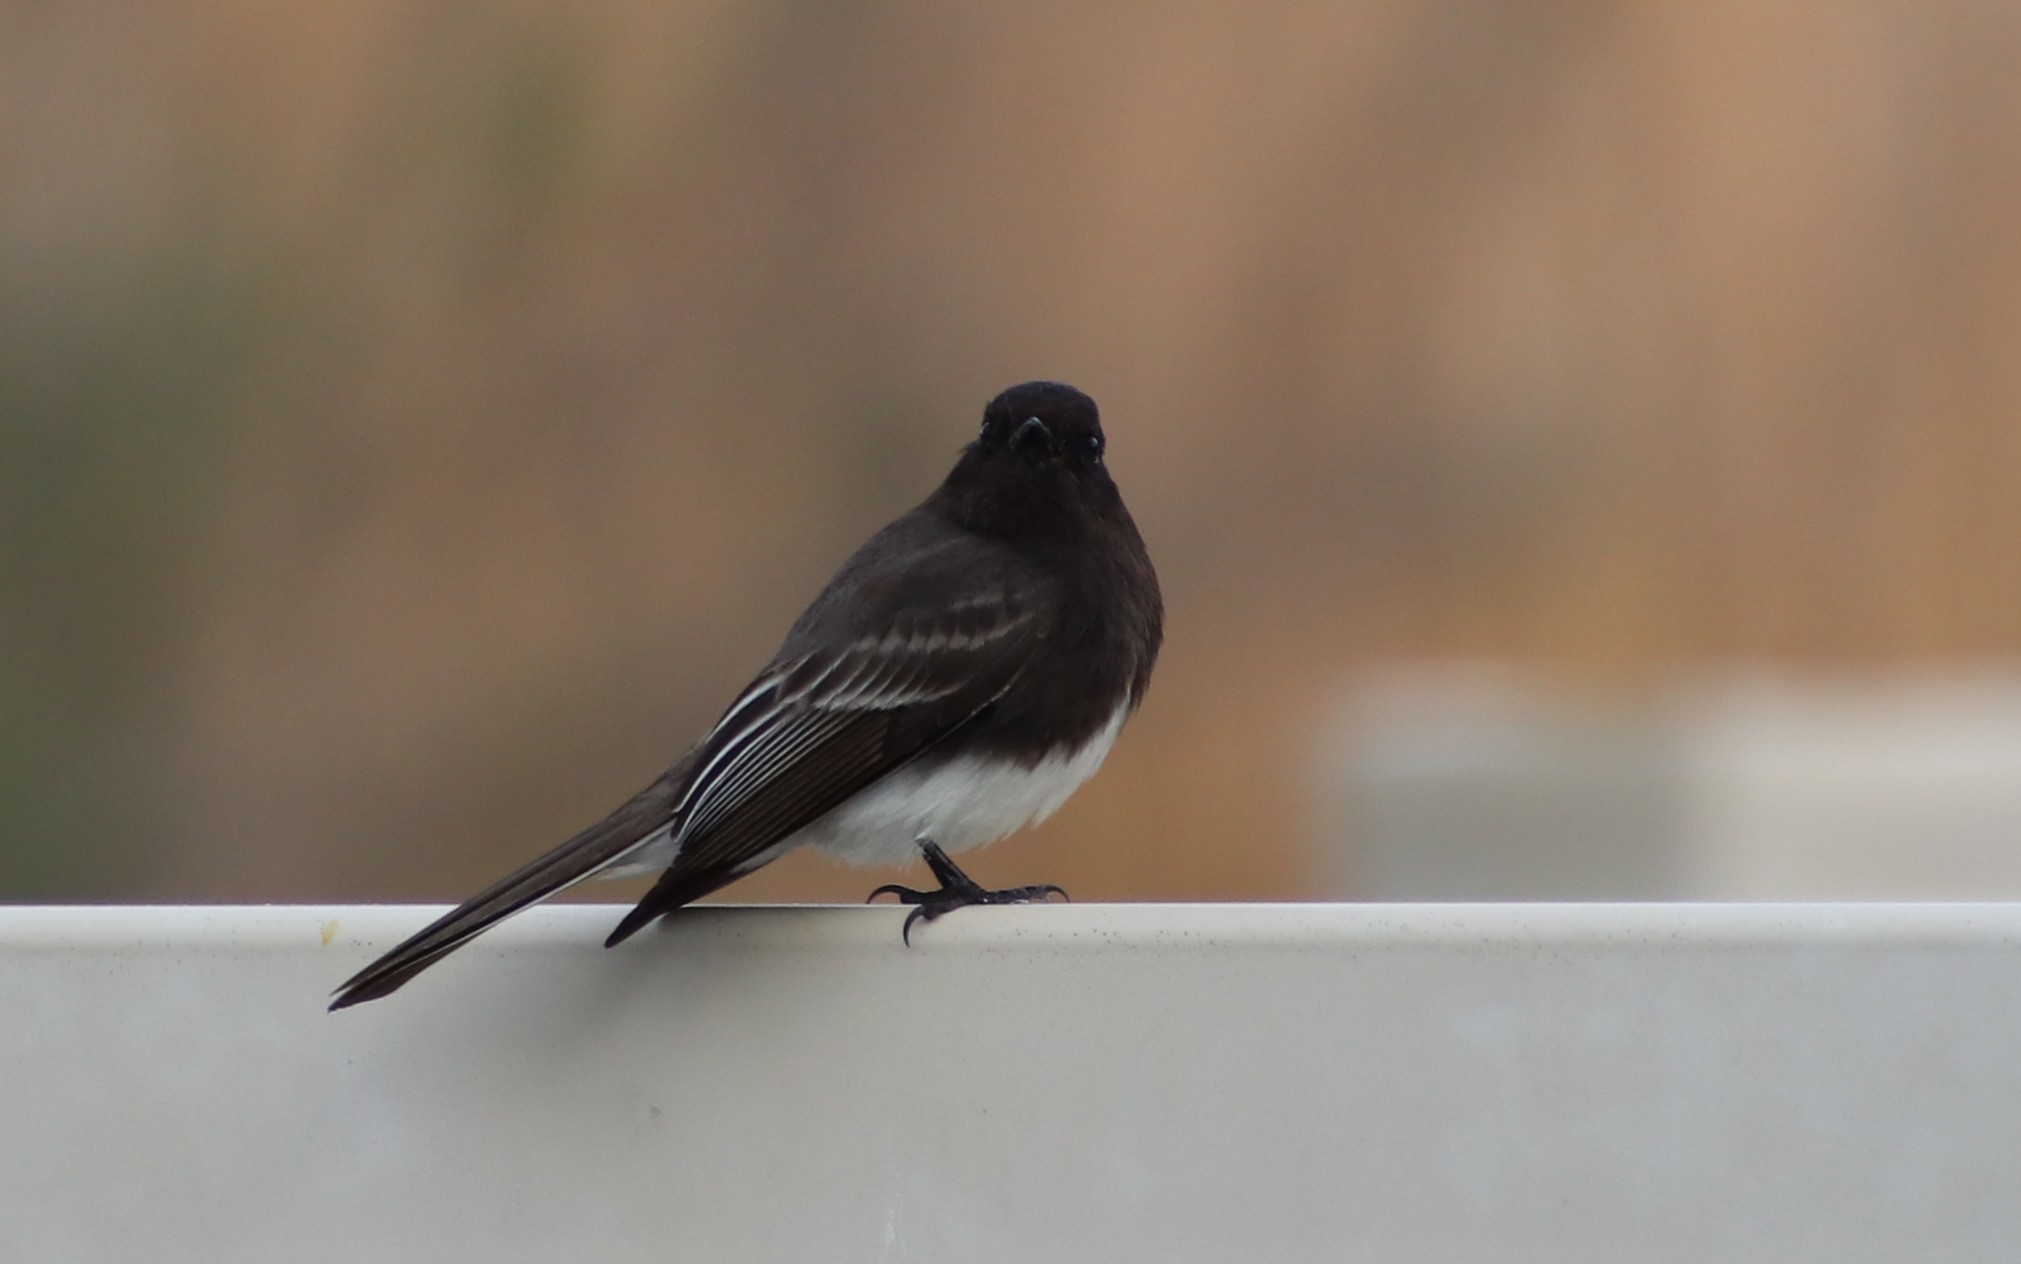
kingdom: Animalia
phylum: Chordata
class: Aves
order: Passeriformes
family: Tyrannidae
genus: Sayornis
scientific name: Sayornis nigricans
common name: Black phoebe
